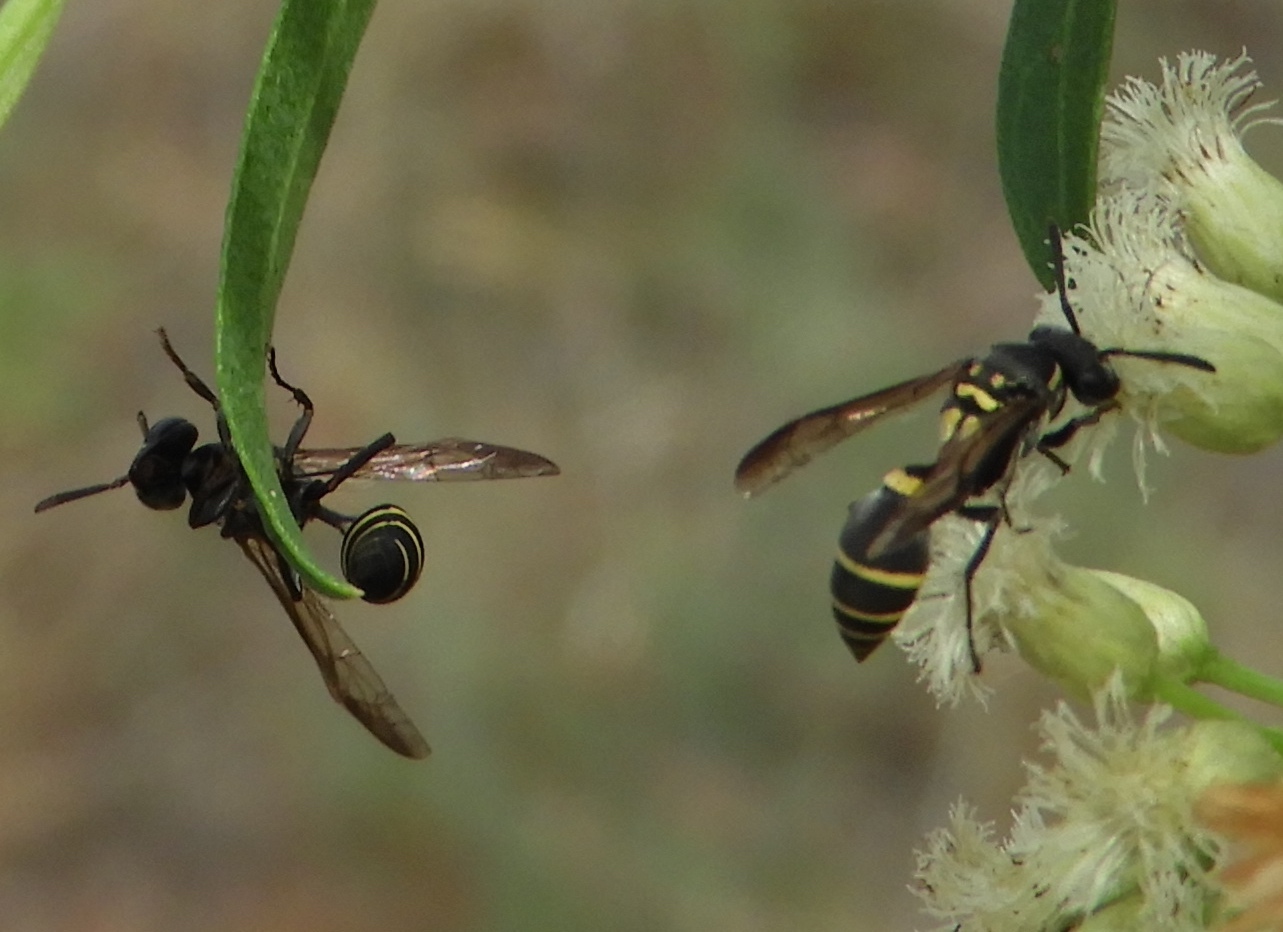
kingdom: Animalia
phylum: Arthropoda
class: Insecta
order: Hymenoptera
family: Vespidae
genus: Myrapetra
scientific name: Myrapetra
